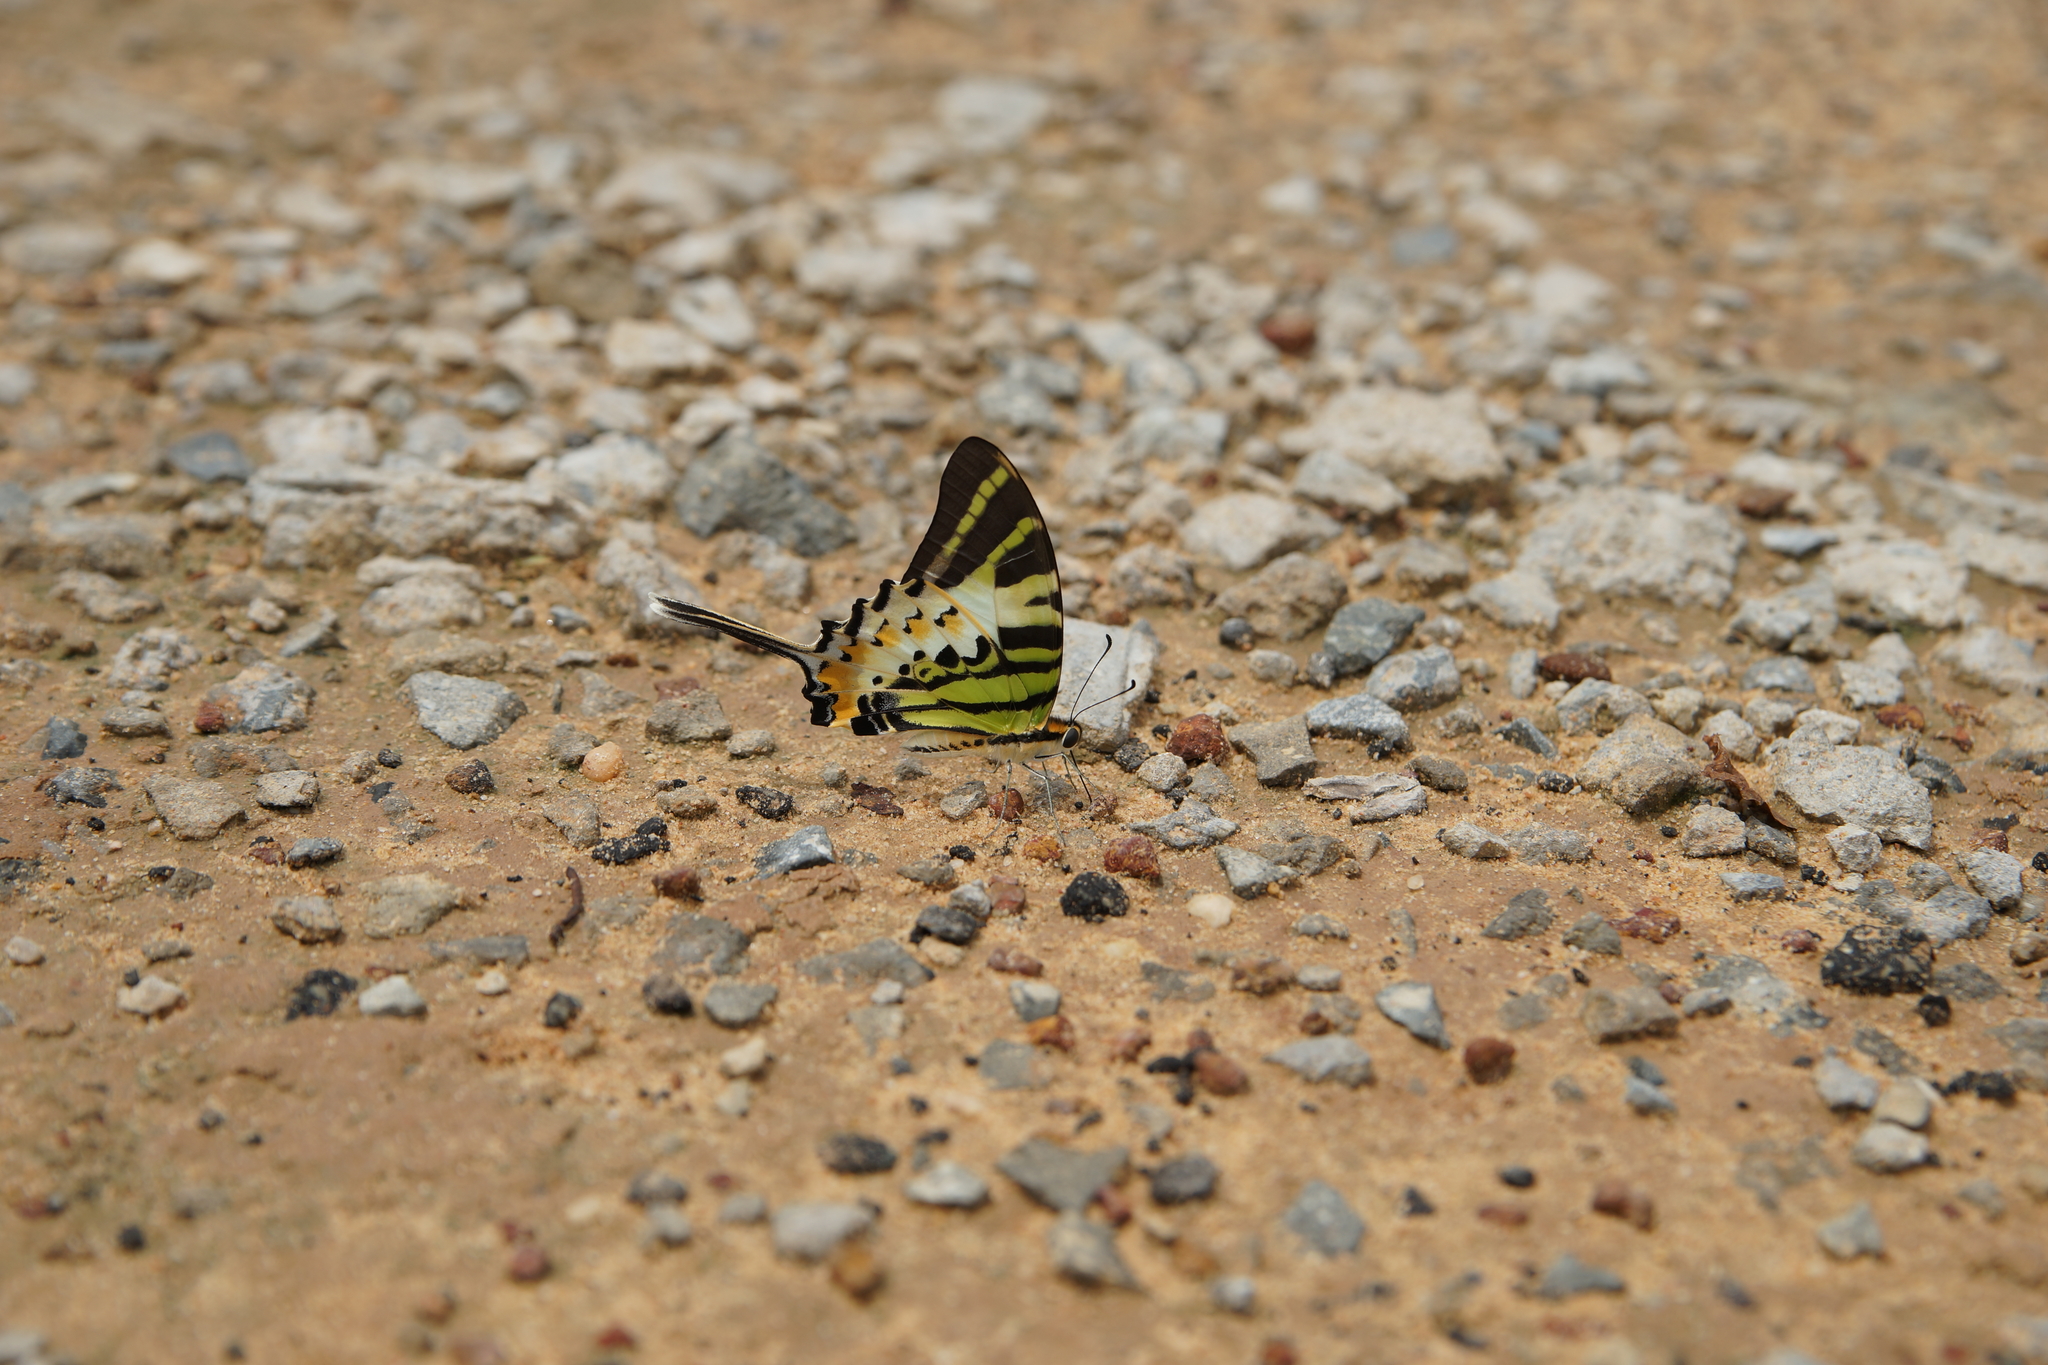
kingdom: Animalia
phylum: Arthropoda
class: Insecta
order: Lepidoptera
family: Papilionidae
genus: Graphium
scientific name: Graphium antiphates
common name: Fivebar swordtail
